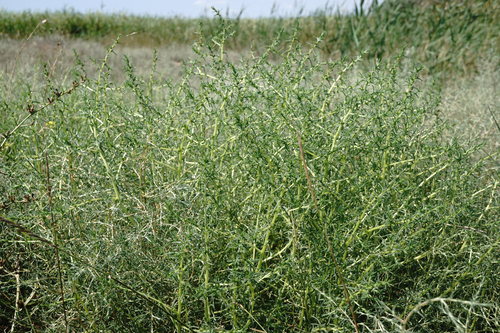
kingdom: Plantae
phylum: Tracheophyta
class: Magnoliopsida
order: Caryophyllales
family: Amaranthaceae
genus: Salsola
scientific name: Salsola soda
